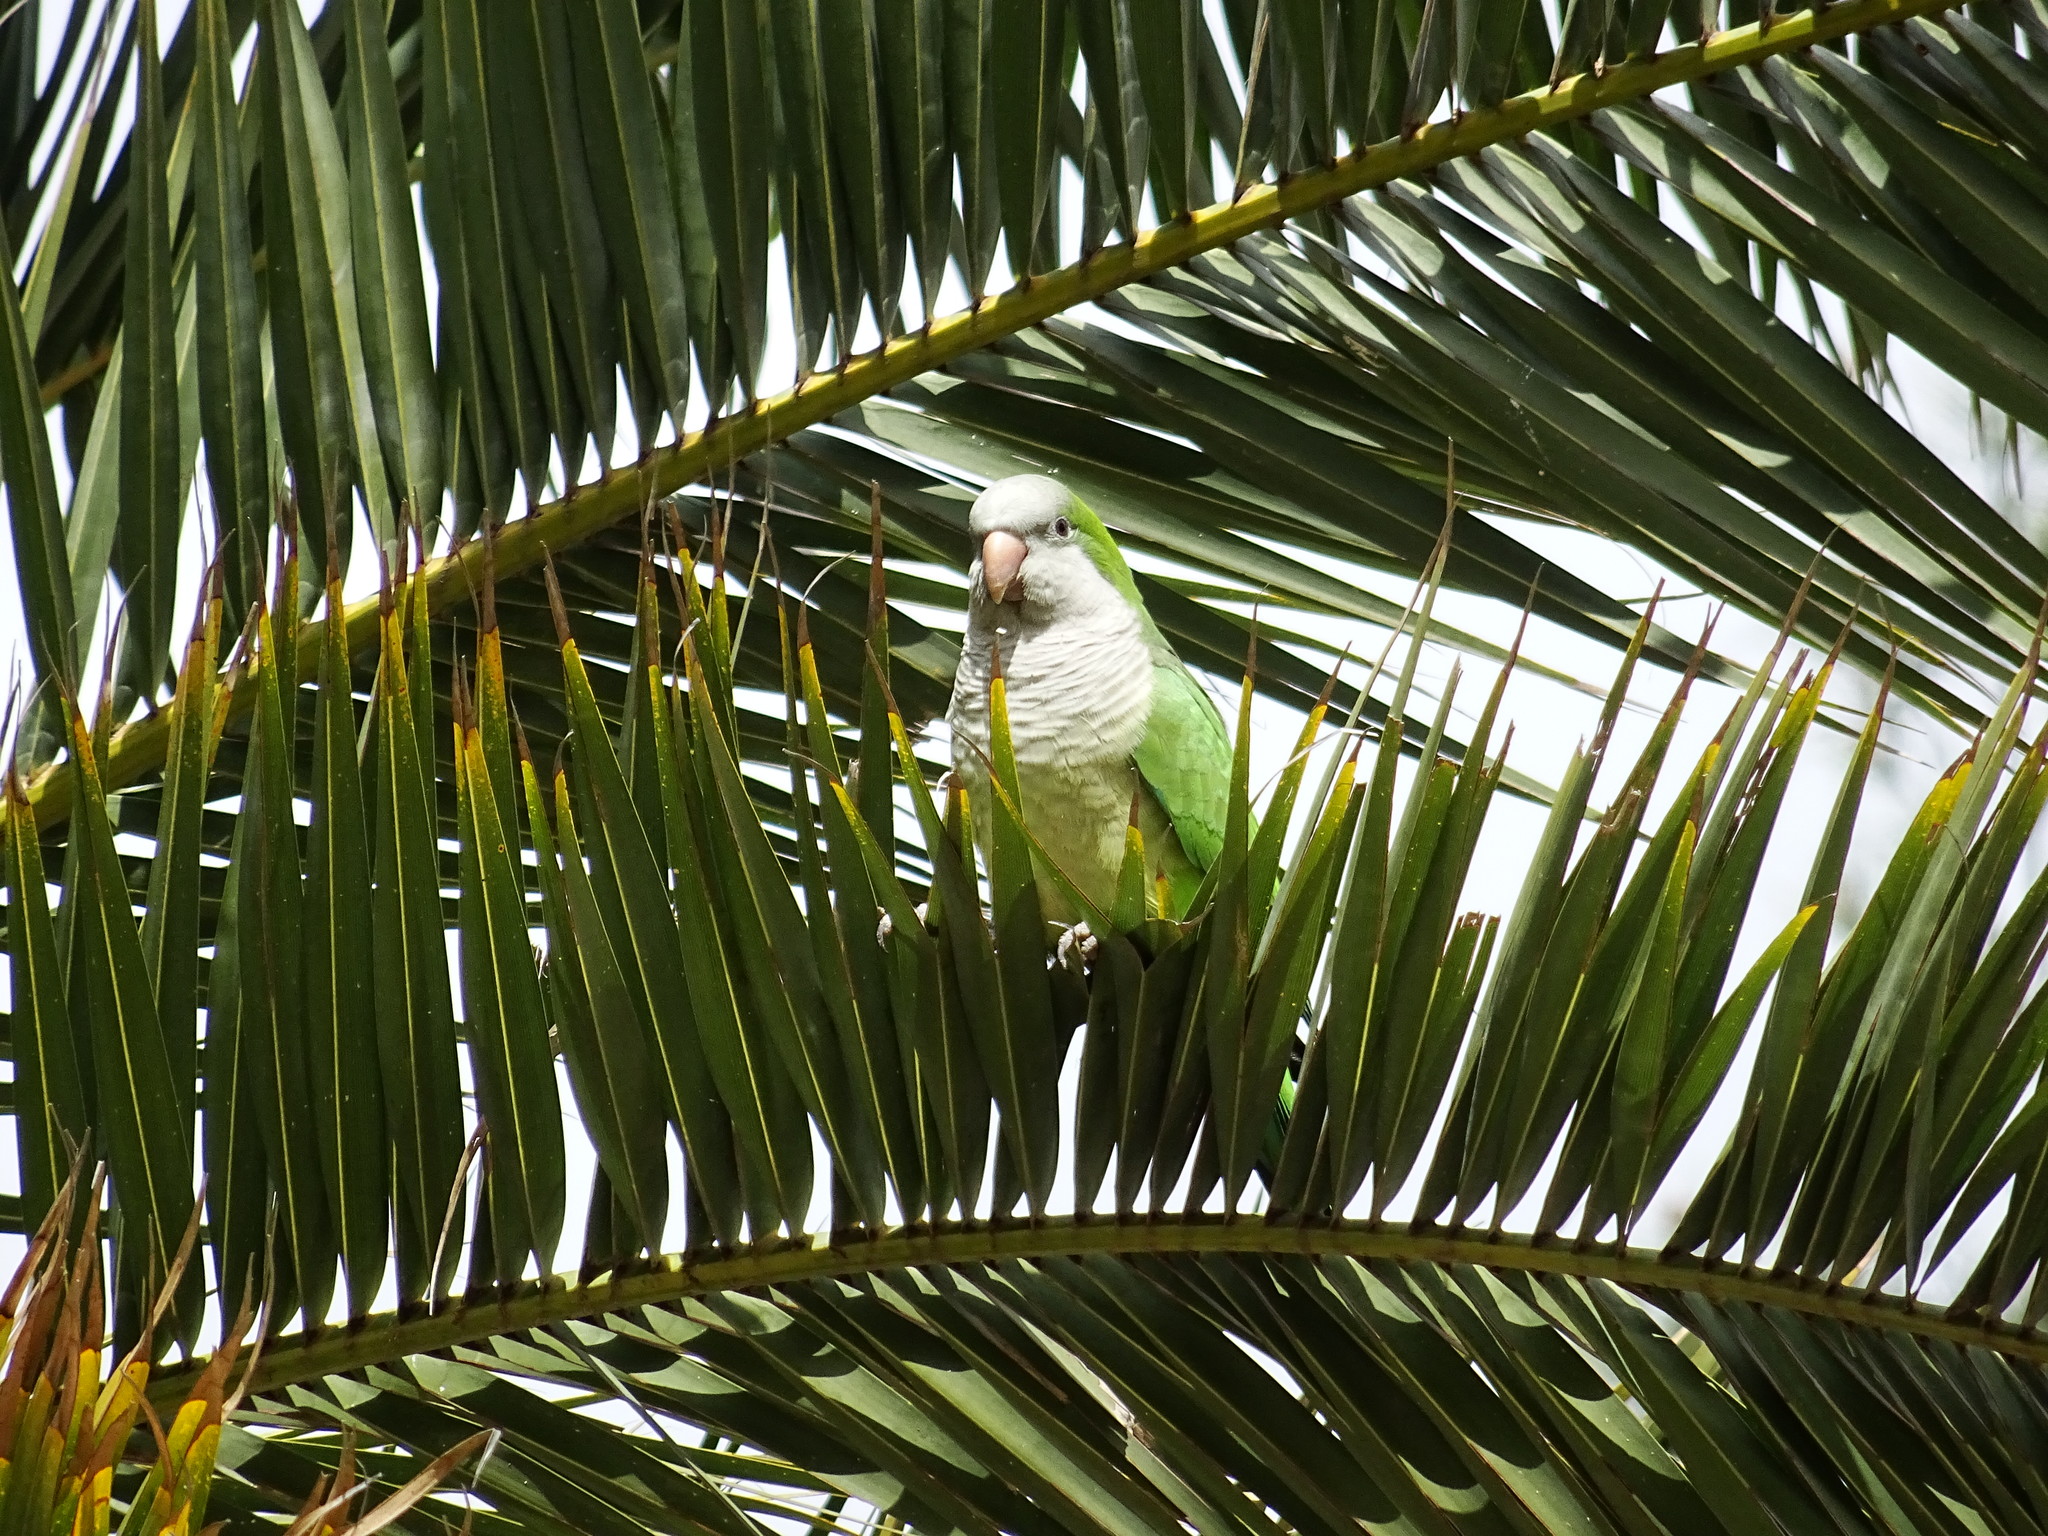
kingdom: Animalia
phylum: Chordata
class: Aves
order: Psittaciformes
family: Psittacidae
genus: Myiopsitta
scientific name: Myiopsitta monachus
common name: Monk parakeet
